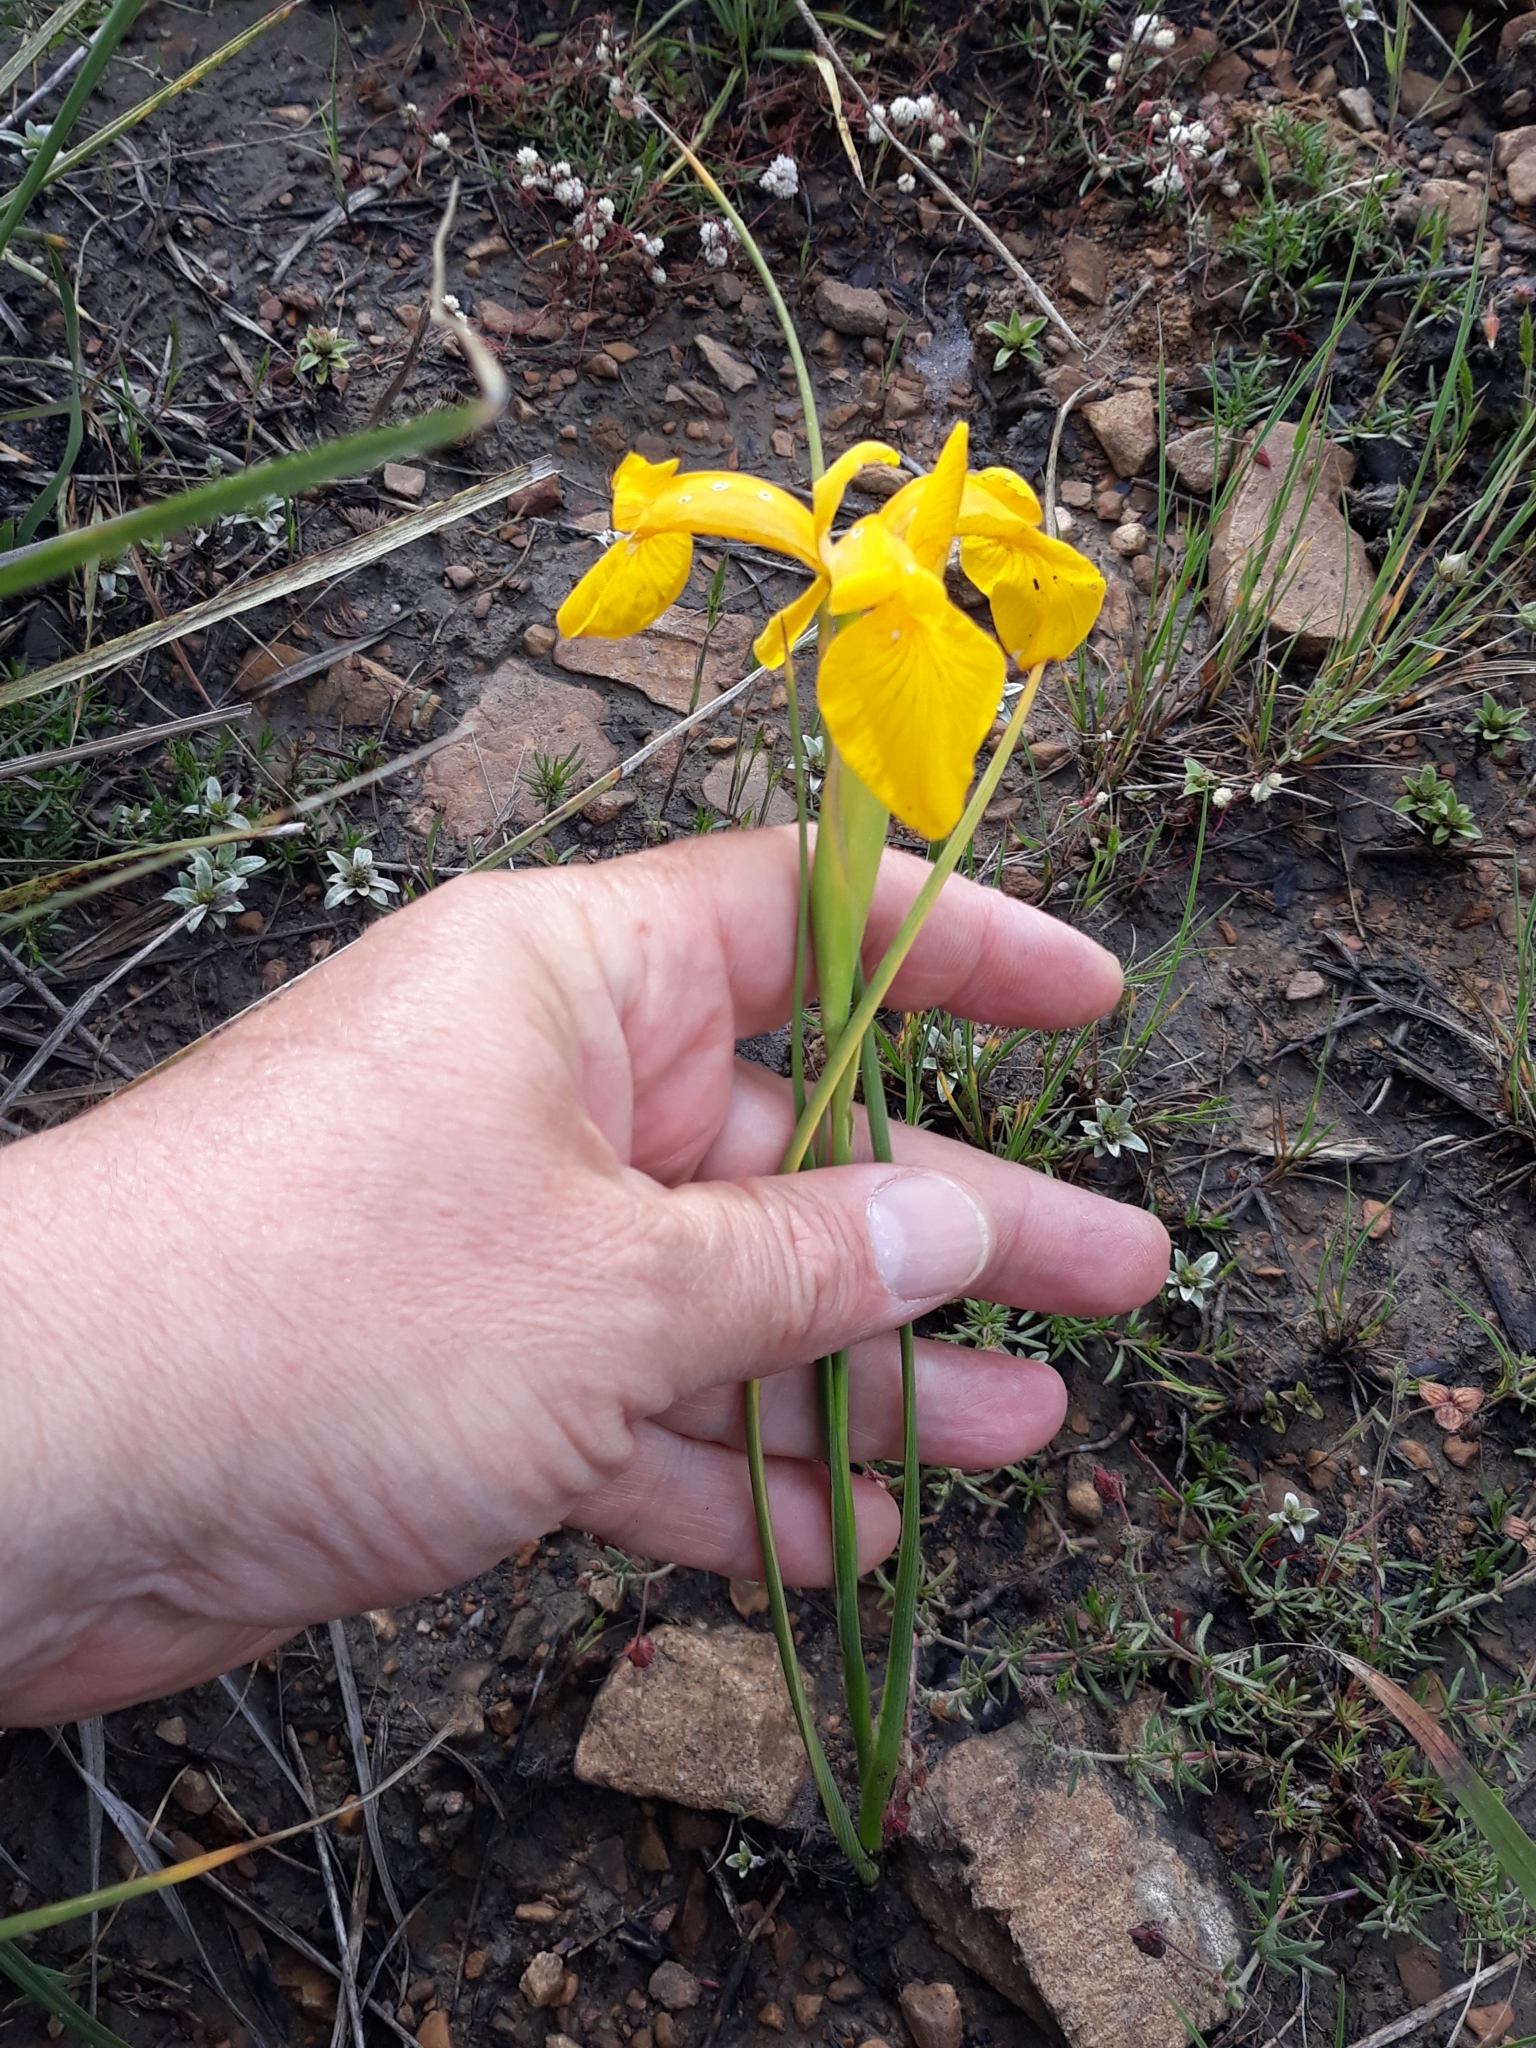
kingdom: Plantae
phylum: Tracheophyta
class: Liliopsida
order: Asparagales
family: Iridaceae
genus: Iris
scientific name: Iris juncea
